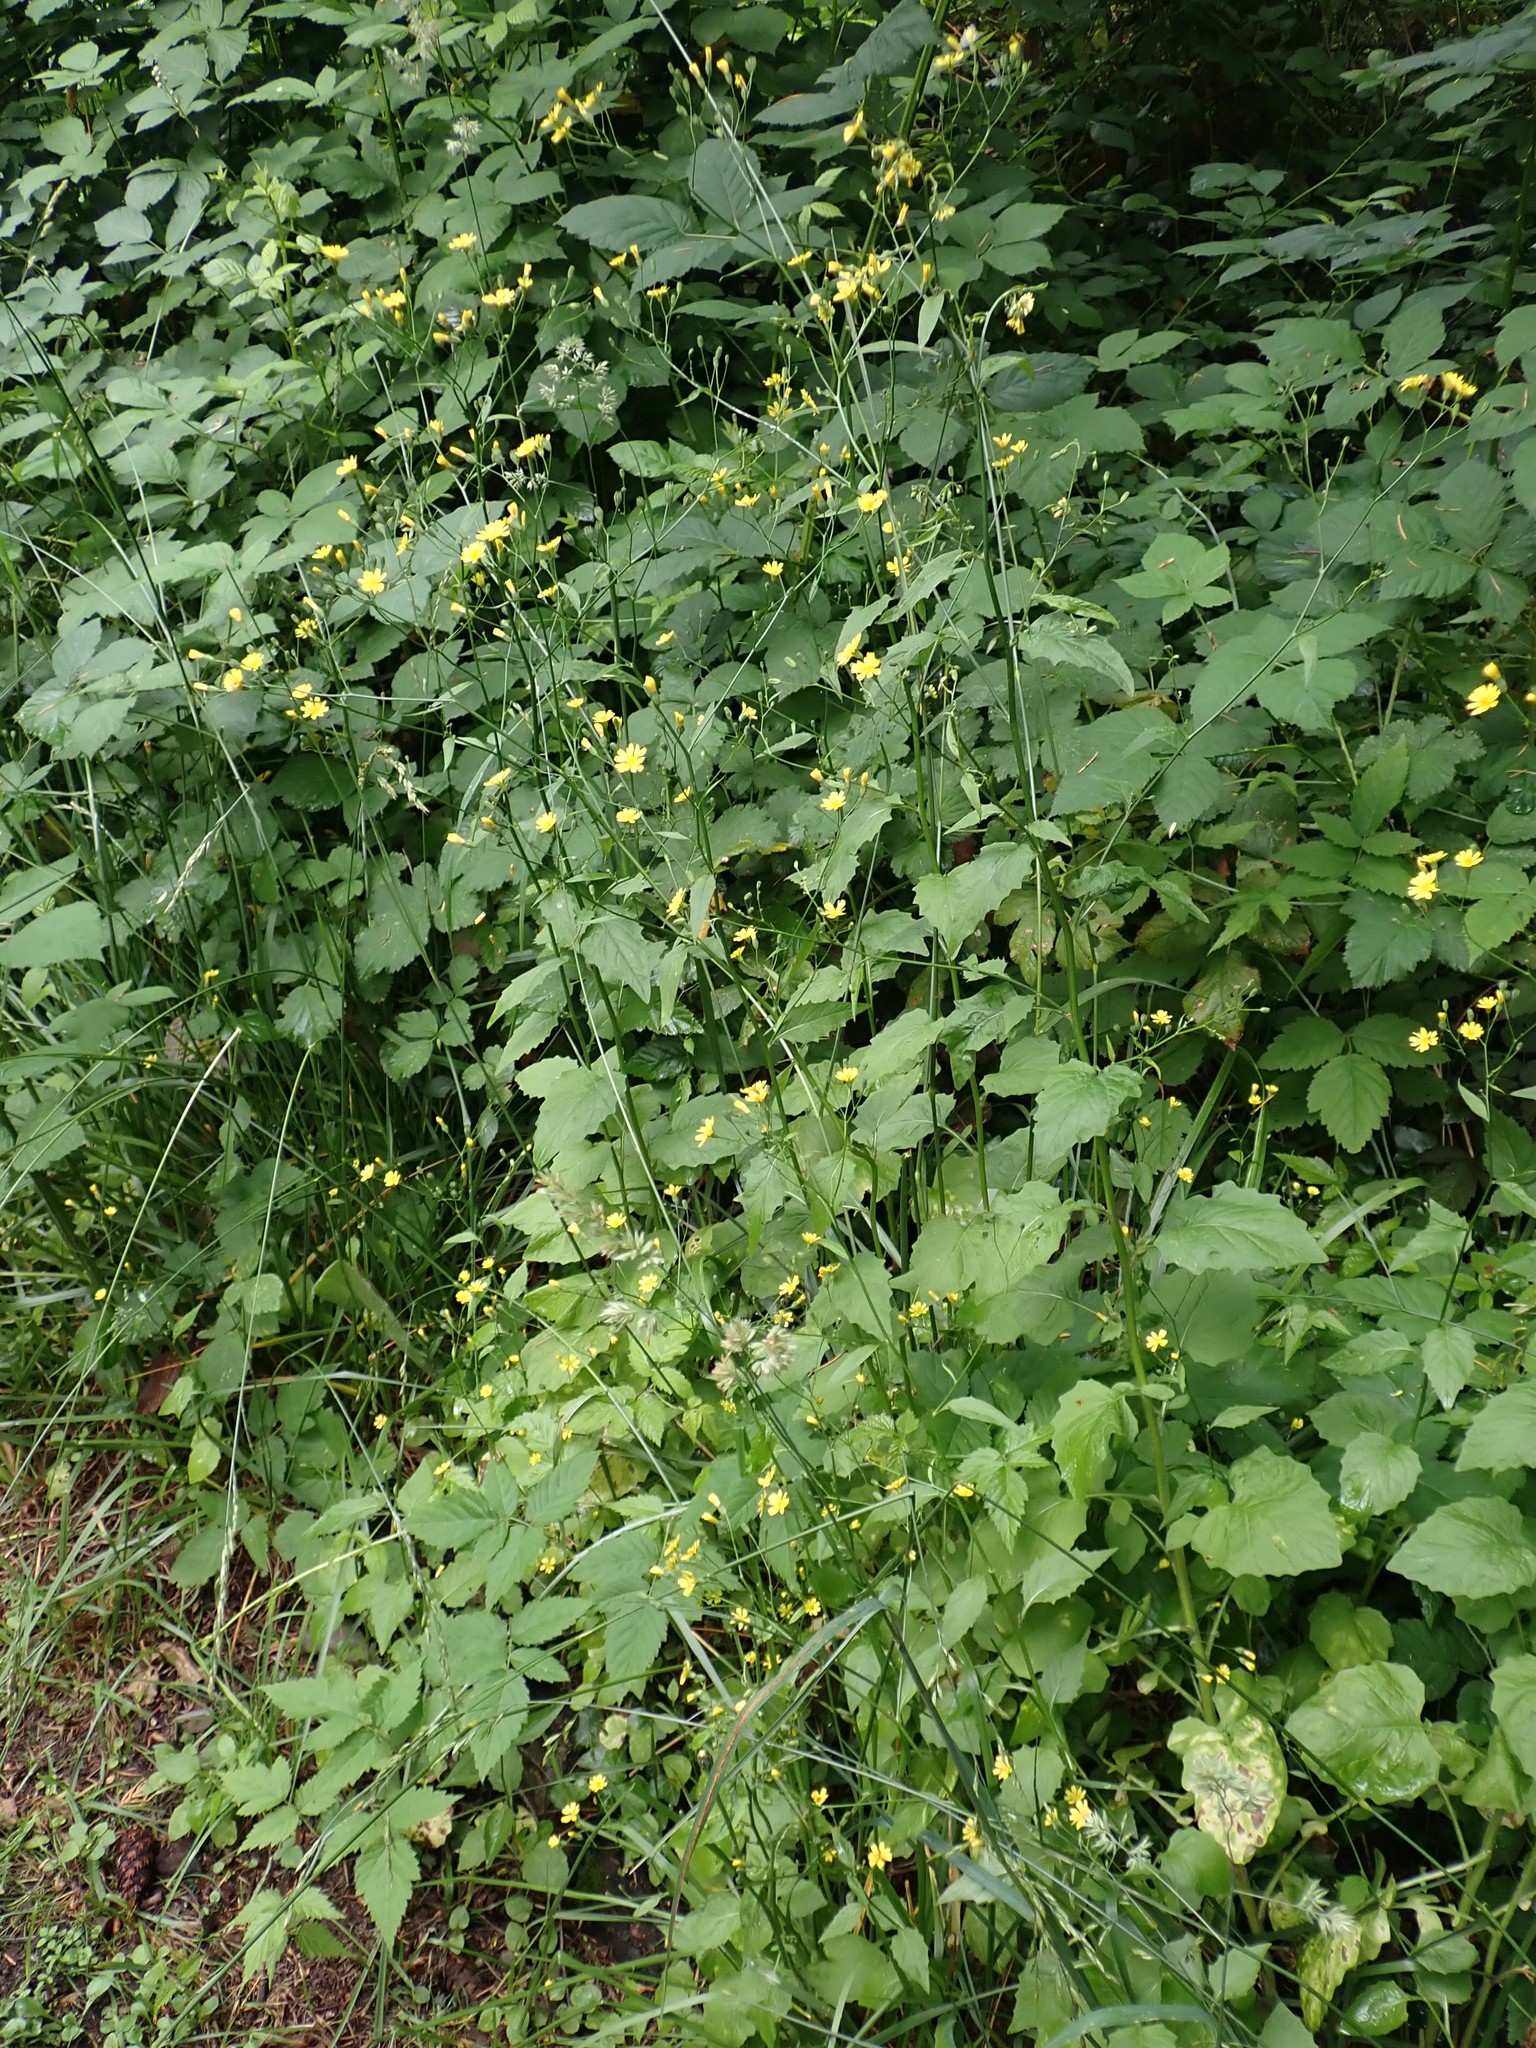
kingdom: Plantae
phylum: Tracheophyta
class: Magnoliopsida
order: Asterales
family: Asteraceae
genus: Lapsana
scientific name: Lapsana communis
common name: Nipplewort
